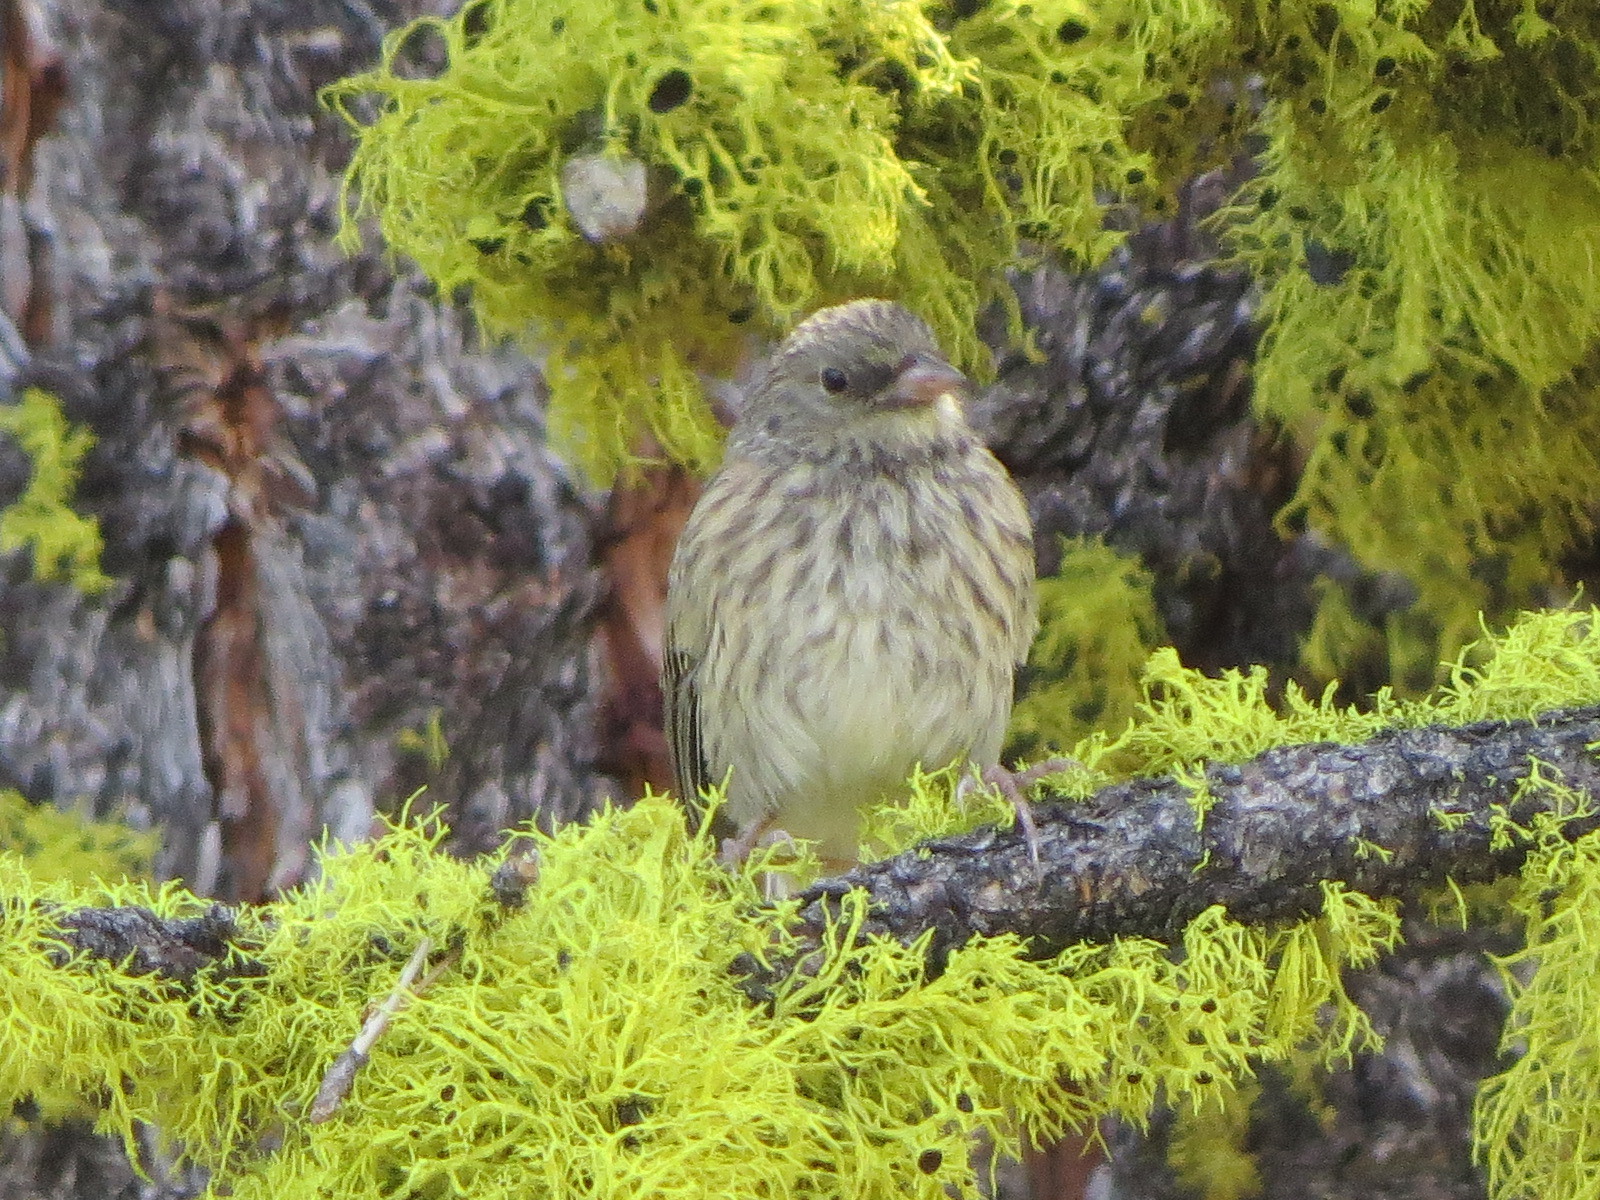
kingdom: Animalia
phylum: Chordata
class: Aves
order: Passeriformes
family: Passerellidae
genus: Junco
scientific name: Junco hyemalis
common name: Dark-eyed junco
